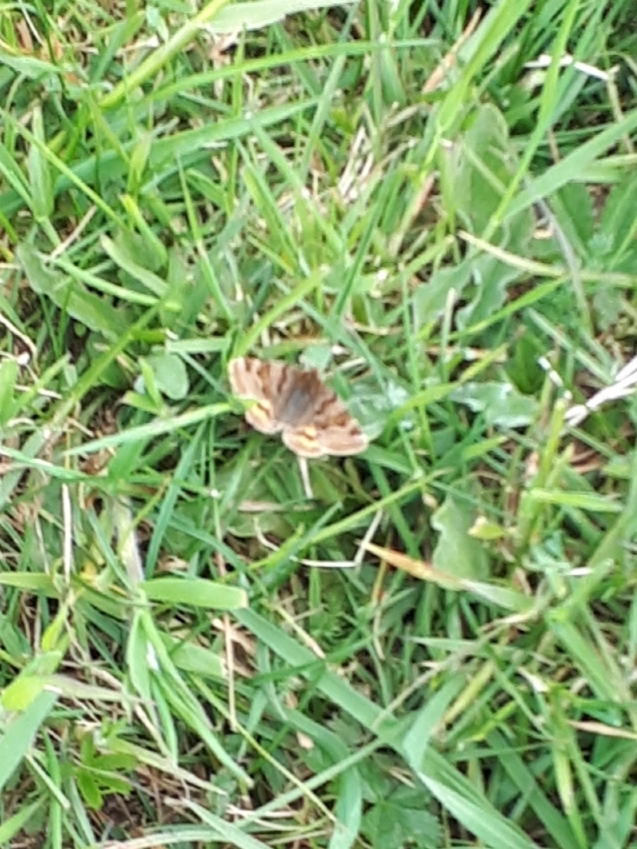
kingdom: Animalia
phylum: Arthropoda
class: Insecta
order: Lepidoptera
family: Erebidae
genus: Euclidia
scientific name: Euclidia glyphica
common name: Burnet companion
